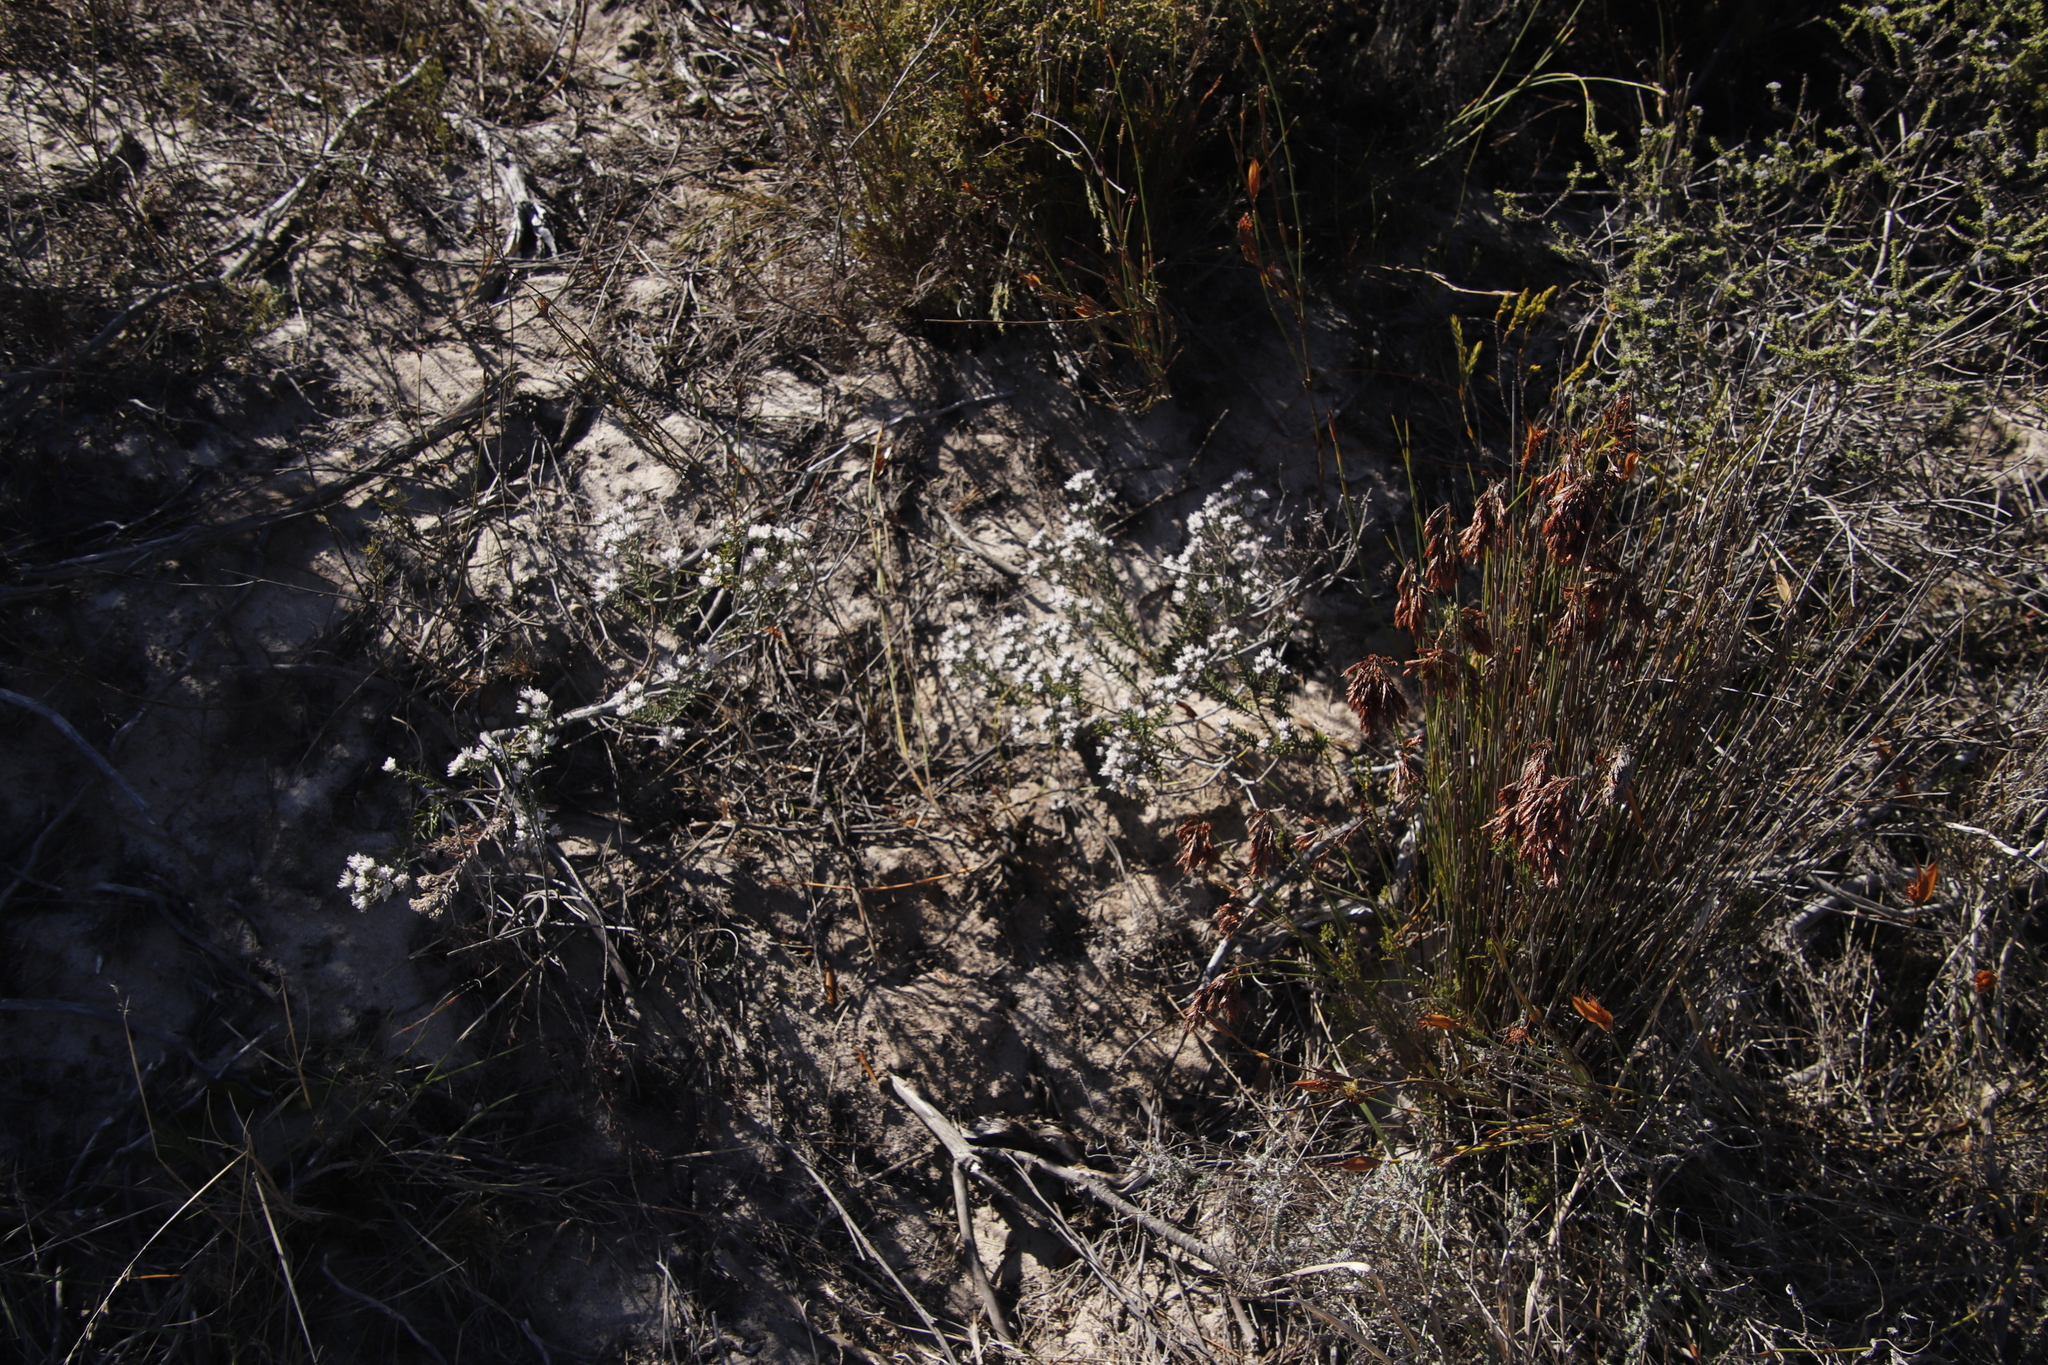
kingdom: Plantae
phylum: Tracheophyta
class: Magnoliopsida
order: Rosales
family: Rhamnaceae
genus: Trichocephalus
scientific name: Trichocephalus stipularis
